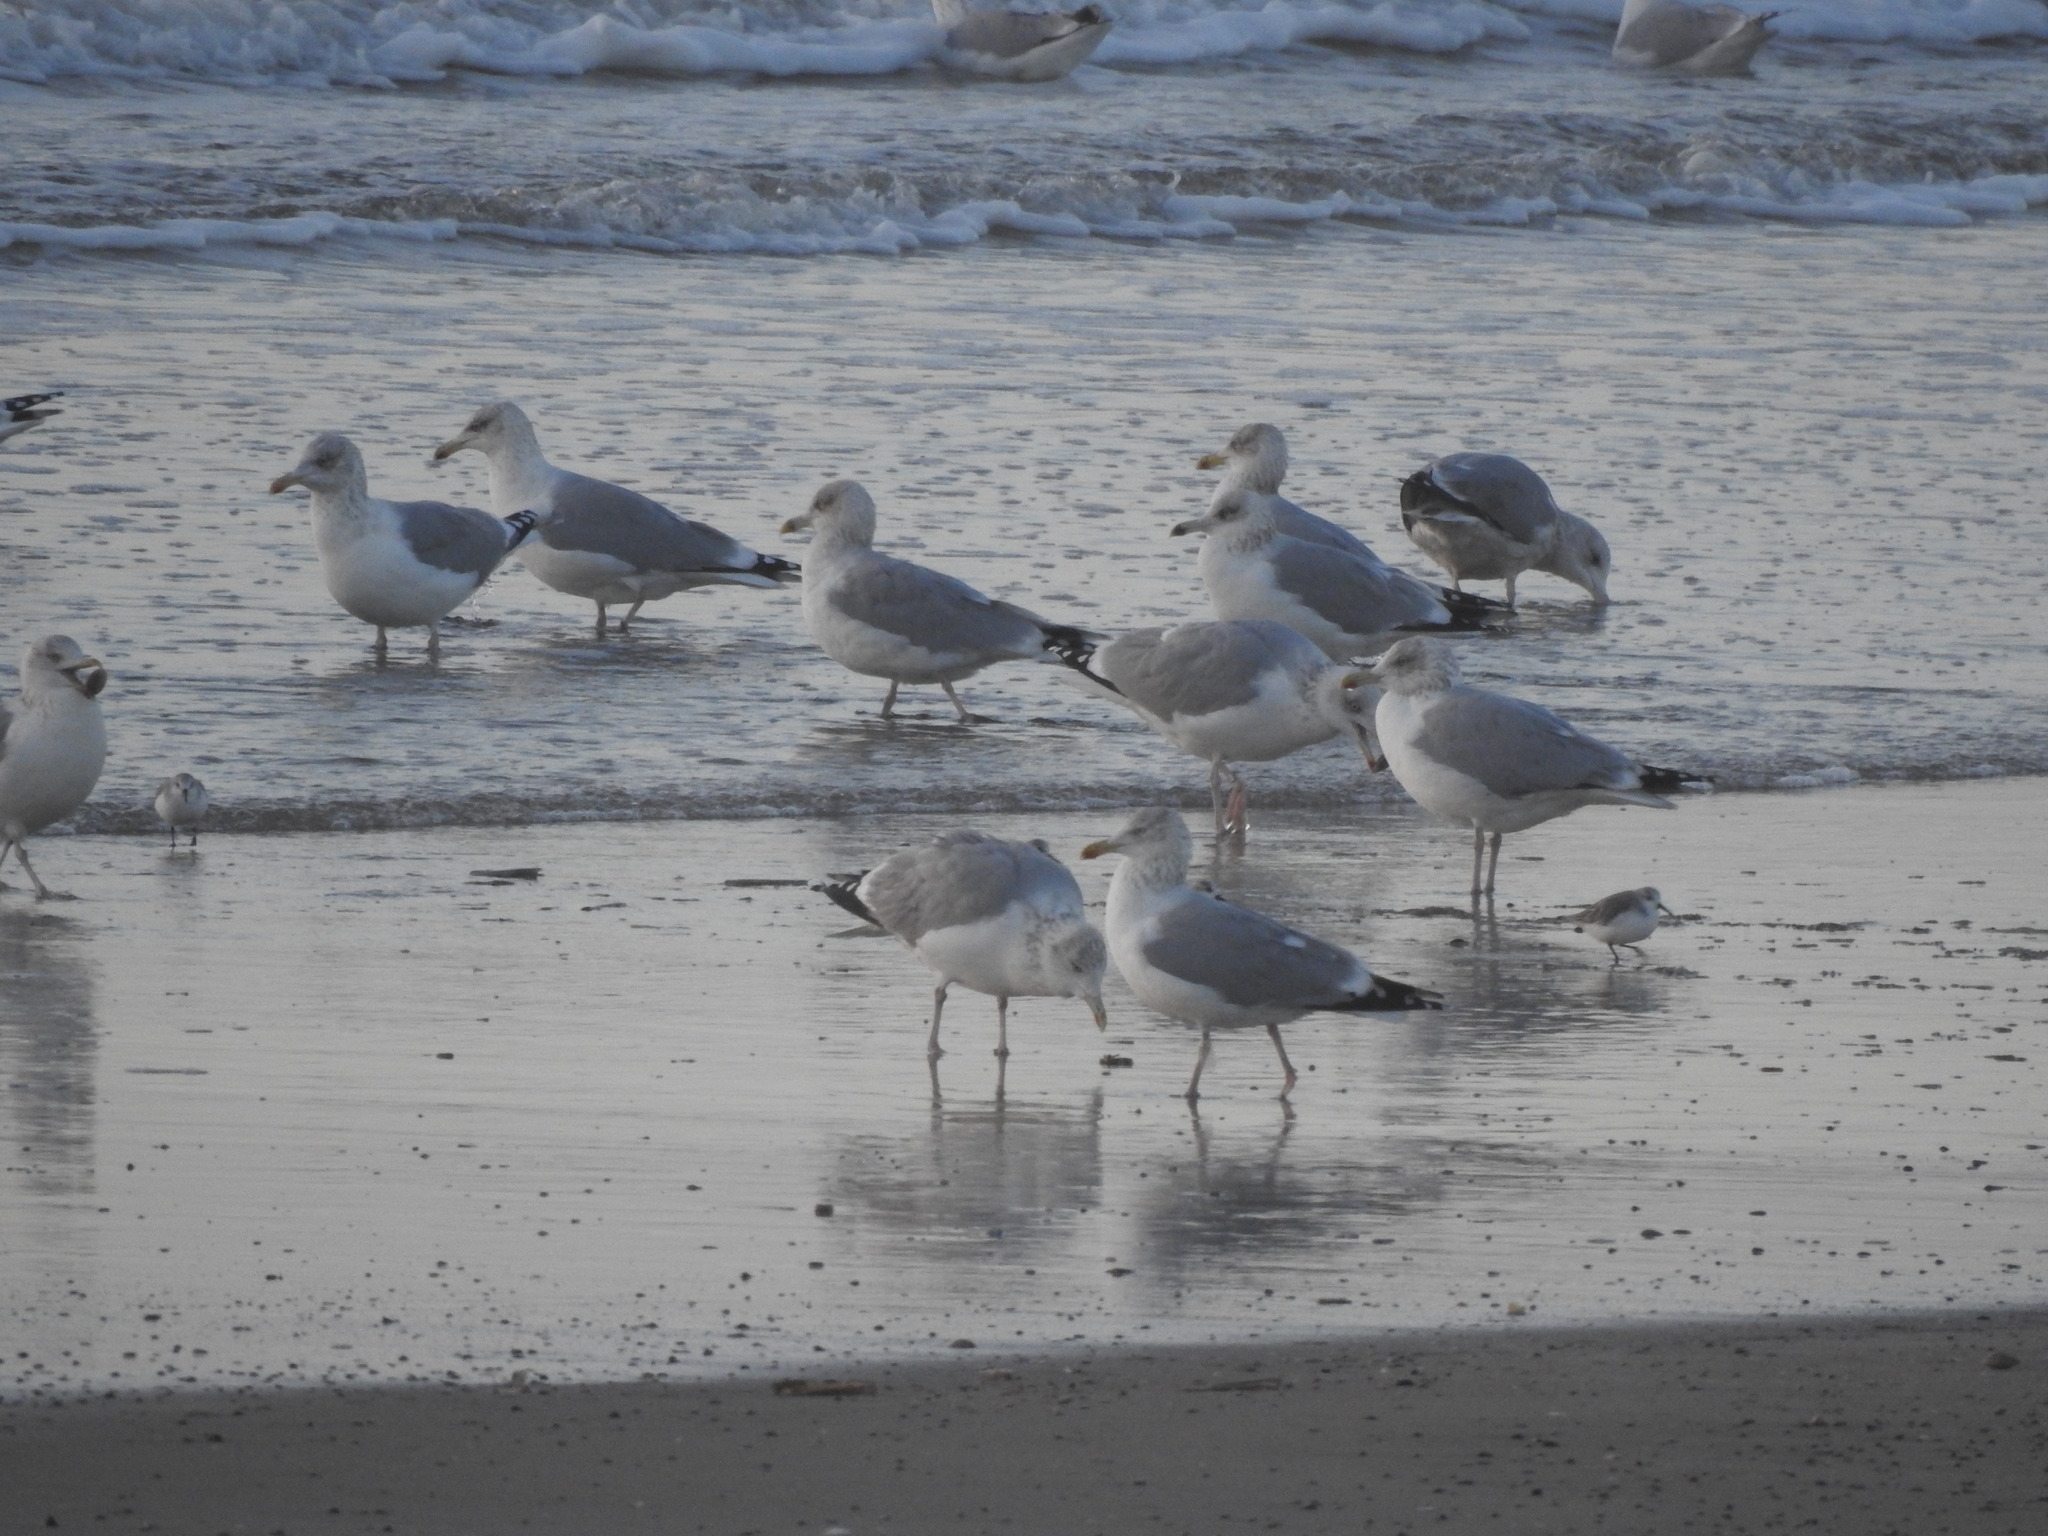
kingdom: Animalia
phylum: Chordata
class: Aves
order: Charadriiformes
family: Laridae
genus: Larus
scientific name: Larus argentatus
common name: Herring gull
